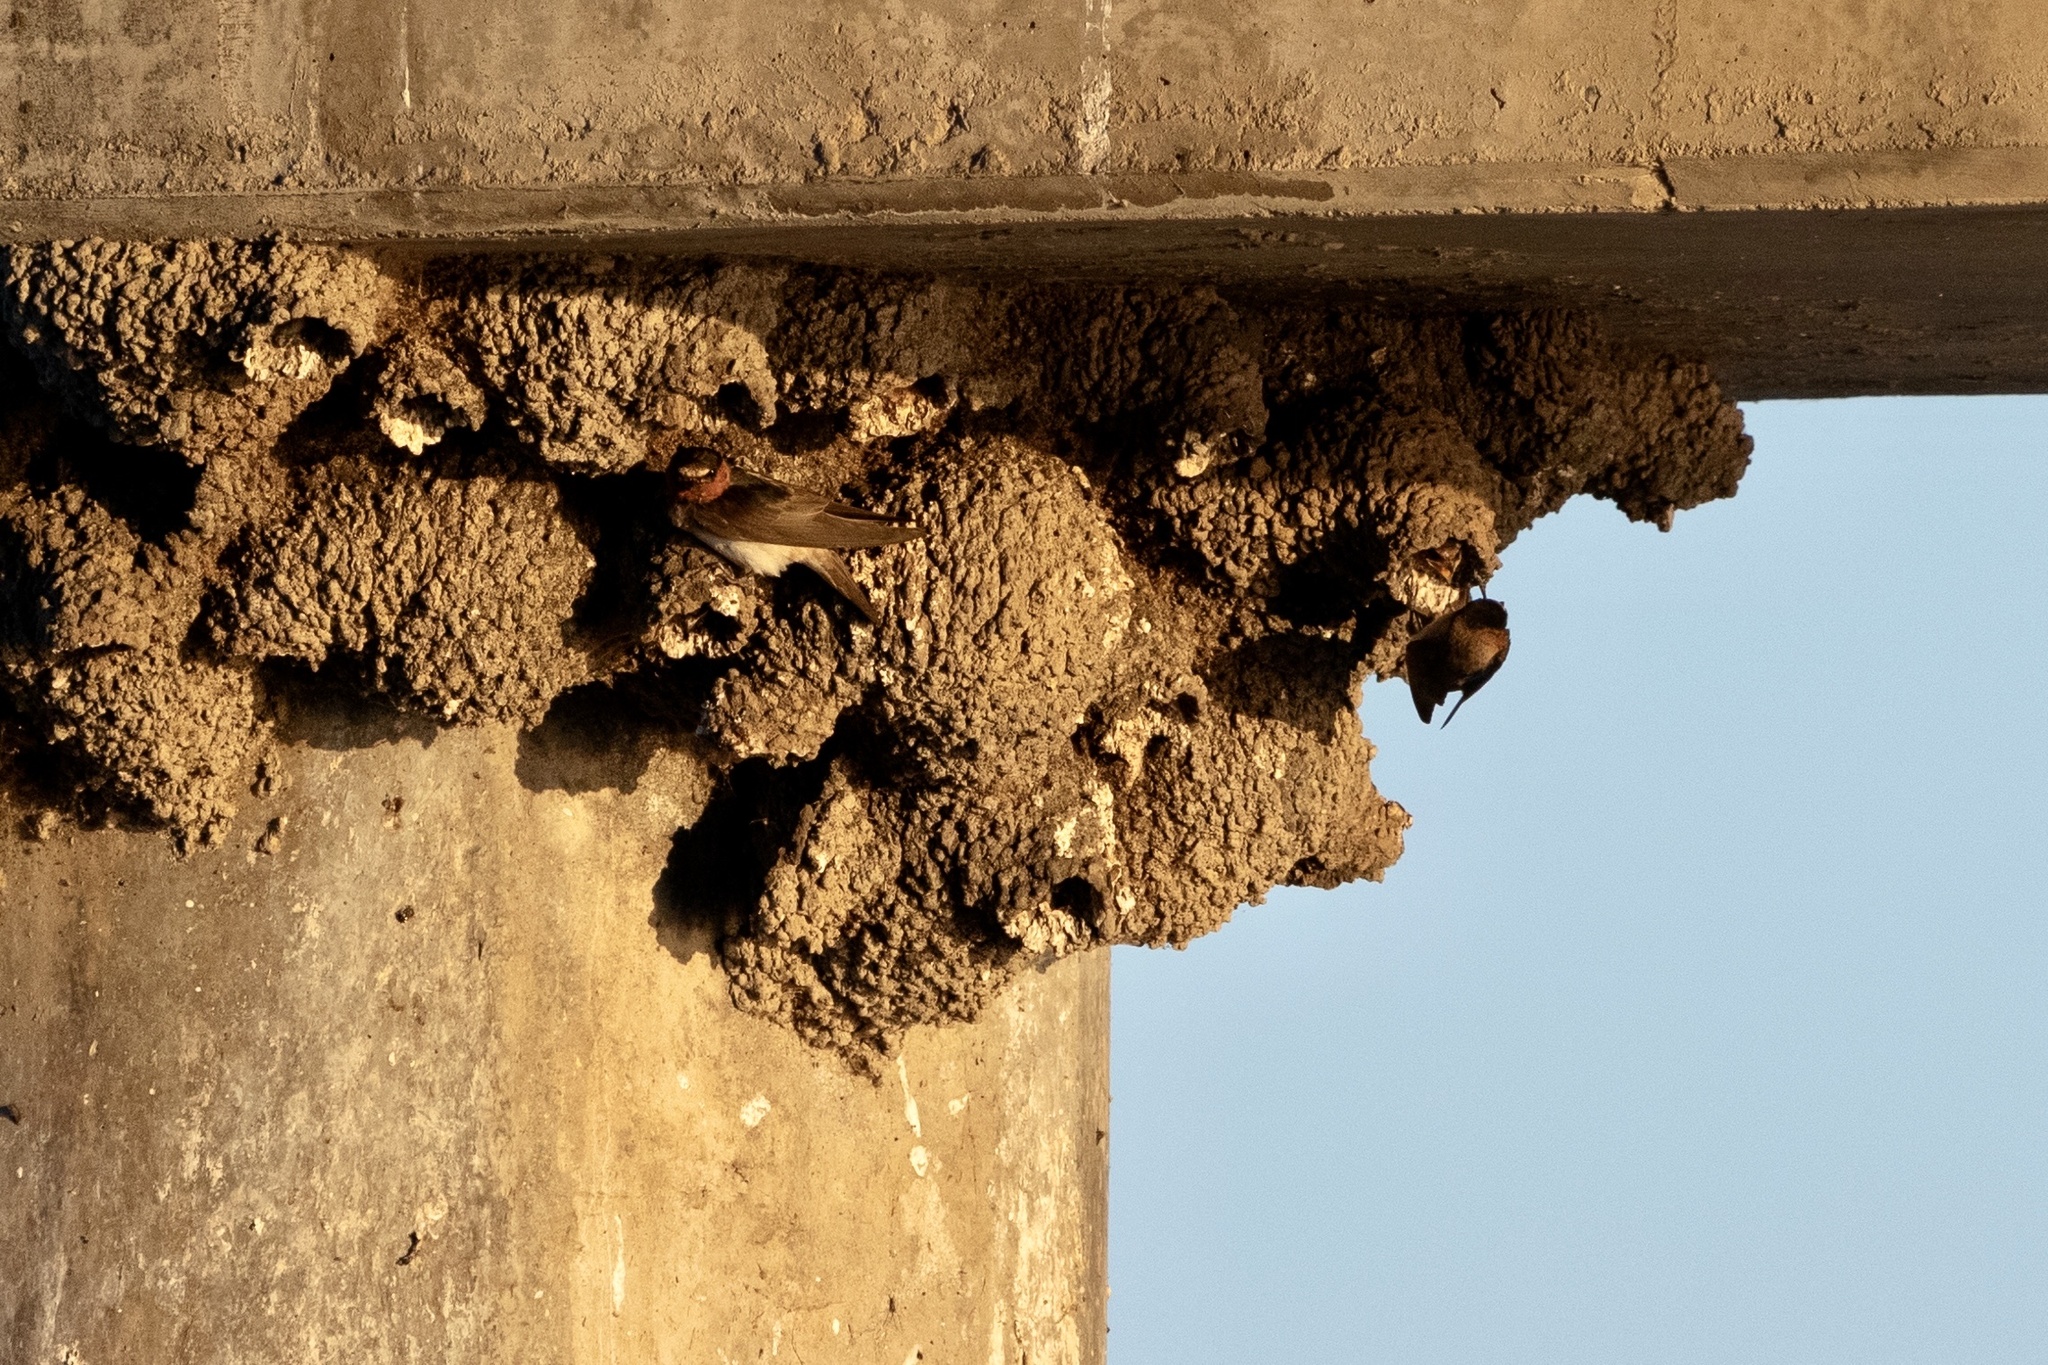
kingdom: Animalia
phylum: Chordata
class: Aves
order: Passeriformes
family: Hirundinidae
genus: Petrochelidon
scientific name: Petrochelidon pyrrhonota
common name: American cliff swallow
